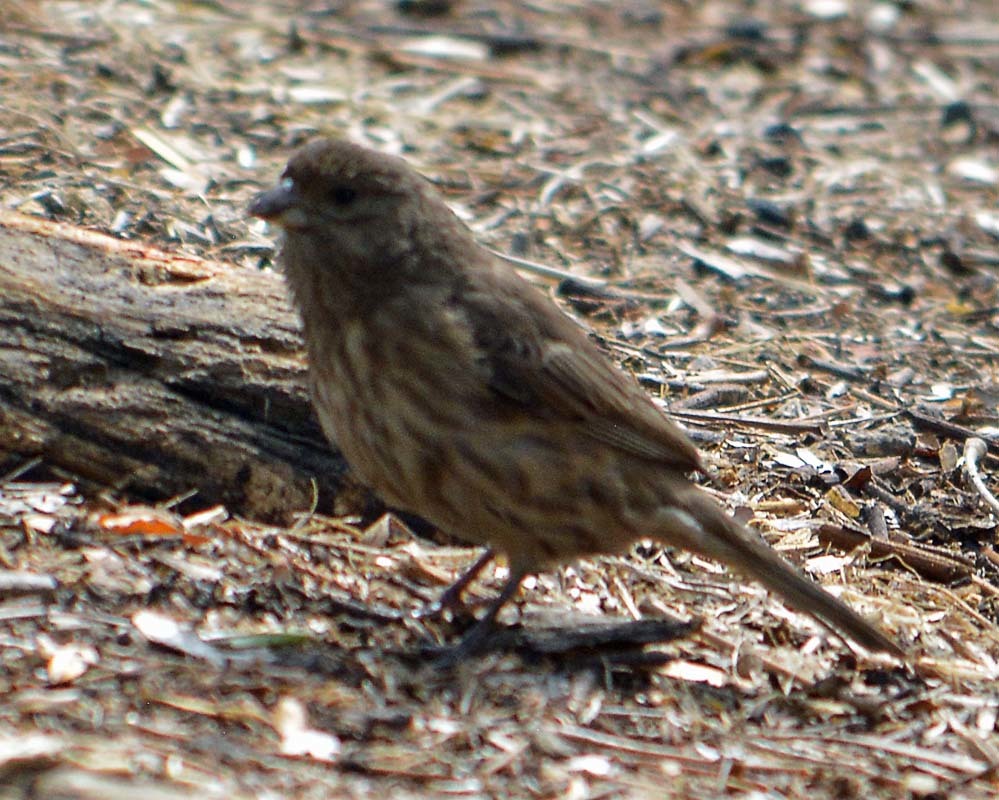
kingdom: Animalia
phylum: Chordata
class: Aves
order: Passeriformes
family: Fringillidae
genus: Haemorhous
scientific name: Haemorhous mexicanus
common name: House finch
